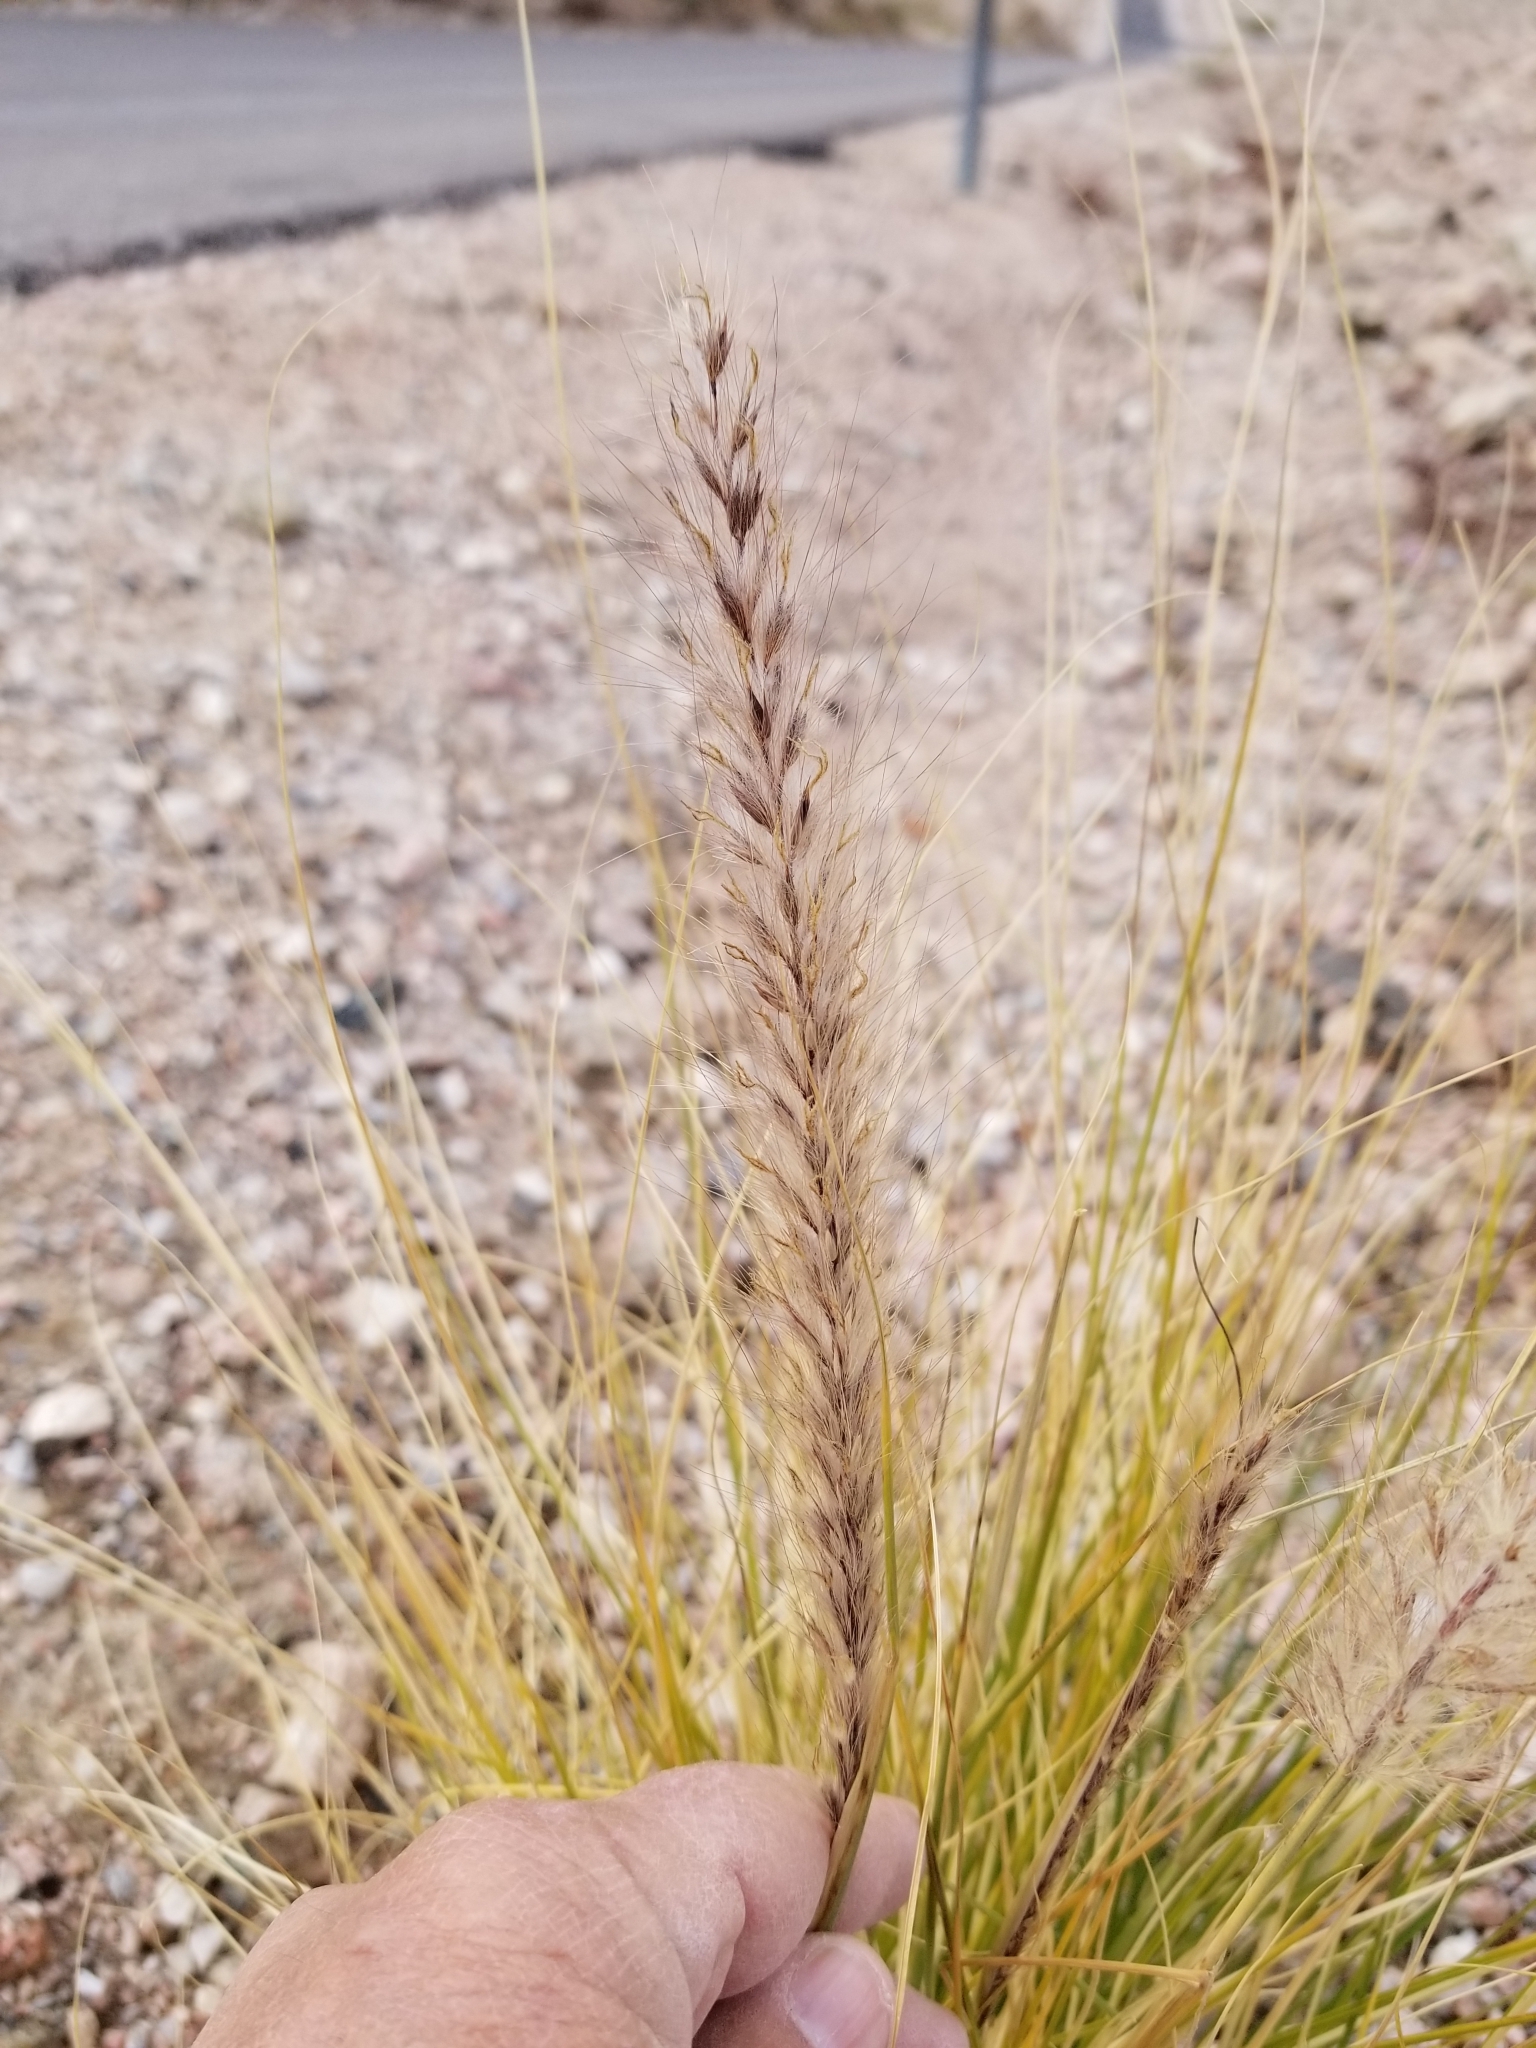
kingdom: Plantae
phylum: Tracheophyta
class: Liliopsida
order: Poales
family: Poaceae
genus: Cenchrus
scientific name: Cenchrus setaceus
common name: Crimson fountaingrass
